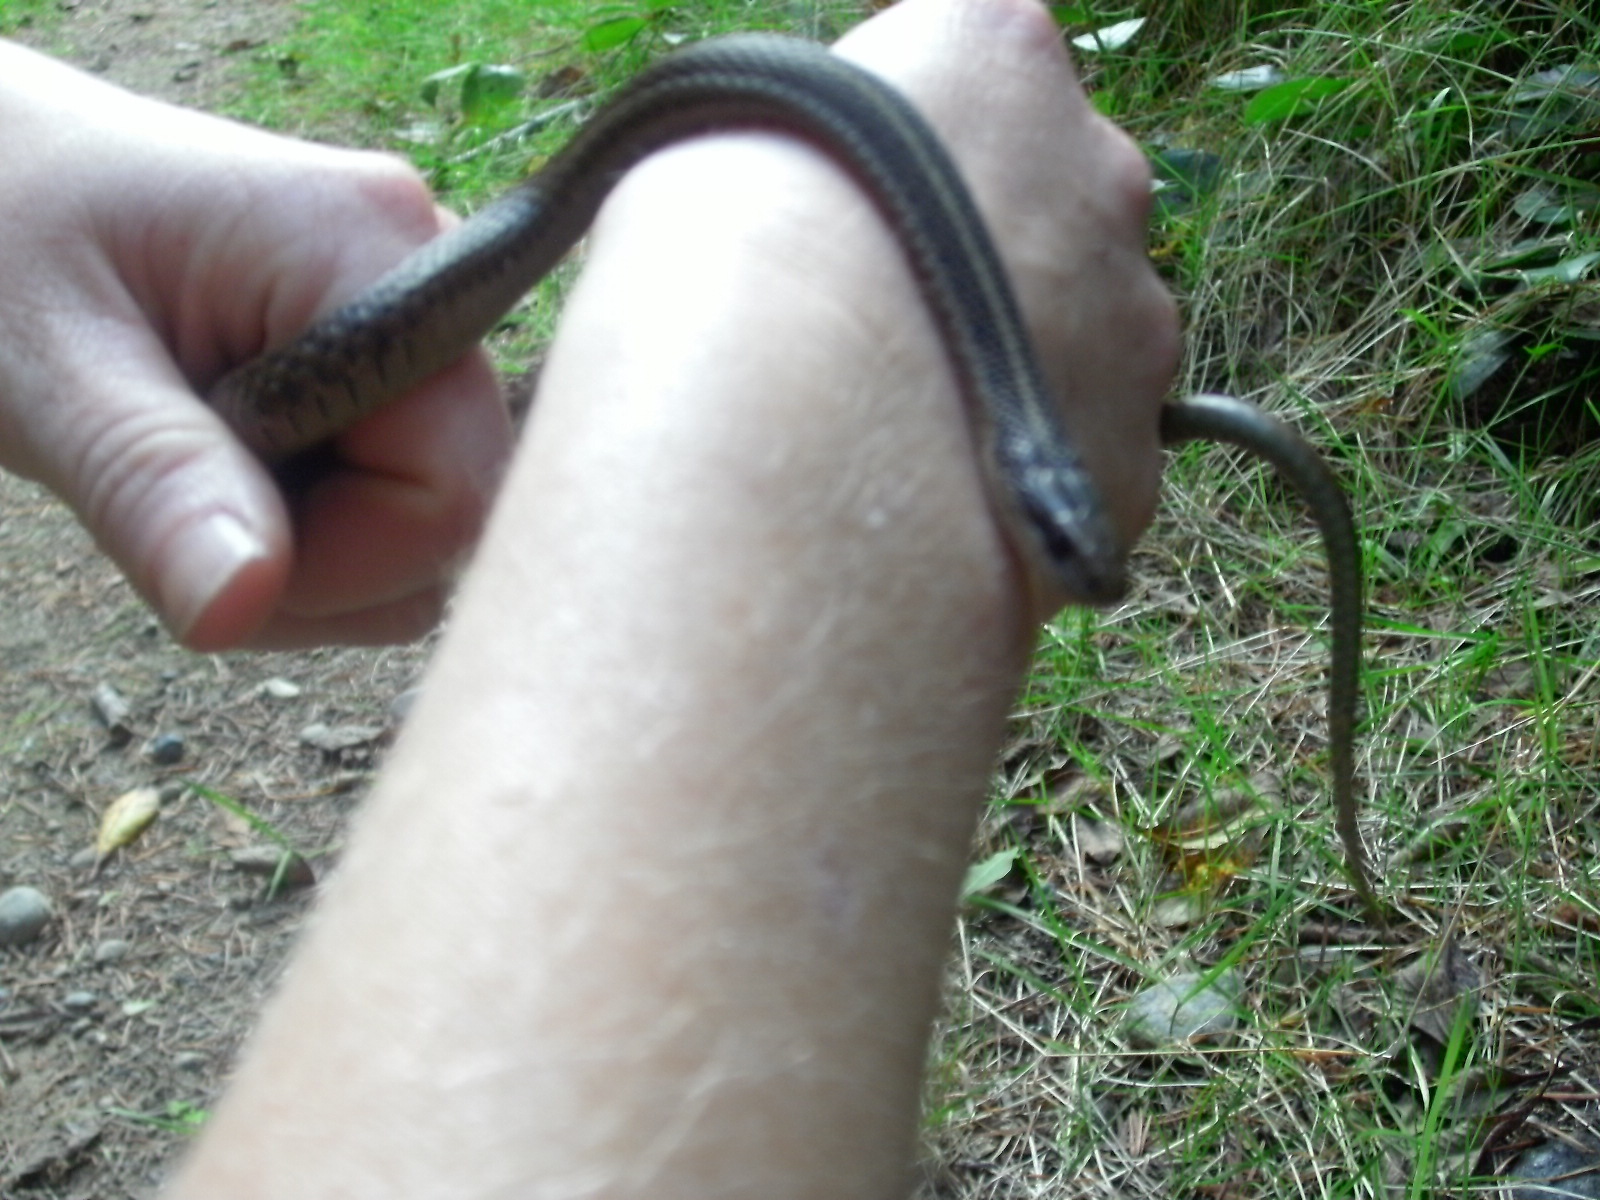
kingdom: Animalia
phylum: Chordata
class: Squamata
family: Colubridae
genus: Thamnophis
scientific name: Thamnophis ordinoides
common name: Northwestern garter snake
